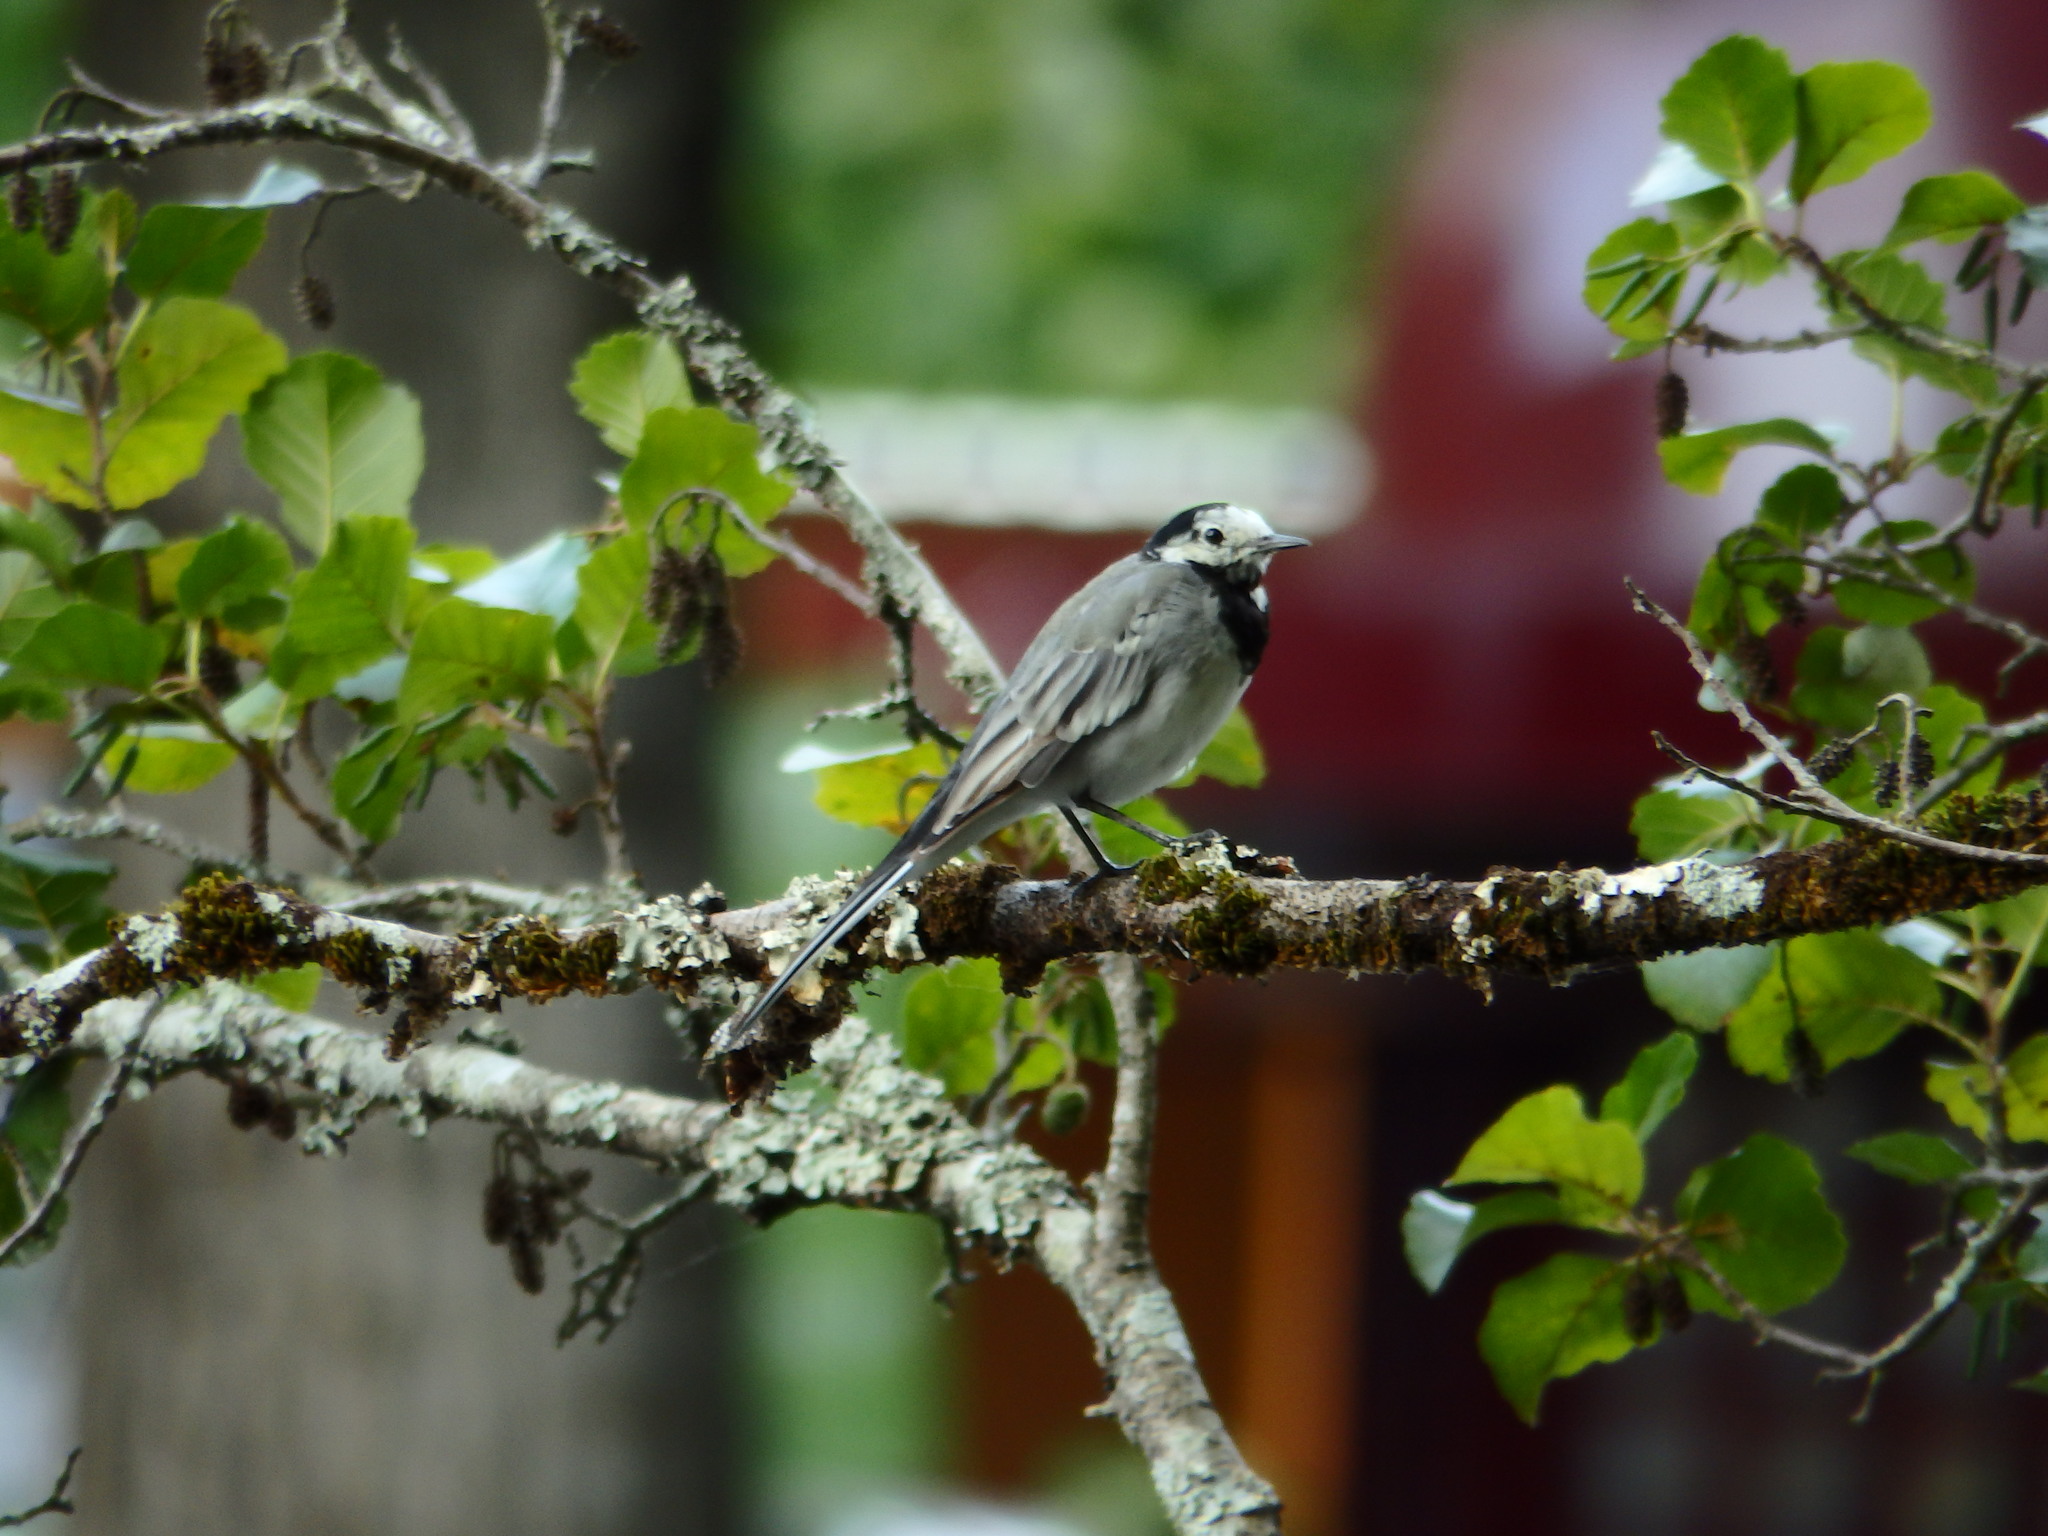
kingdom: Animalia
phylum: Chordata
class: Aves
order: Passeriformes
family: Motacillidae
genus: Motacilla
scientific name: Motacilla alba
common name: White wagtail
